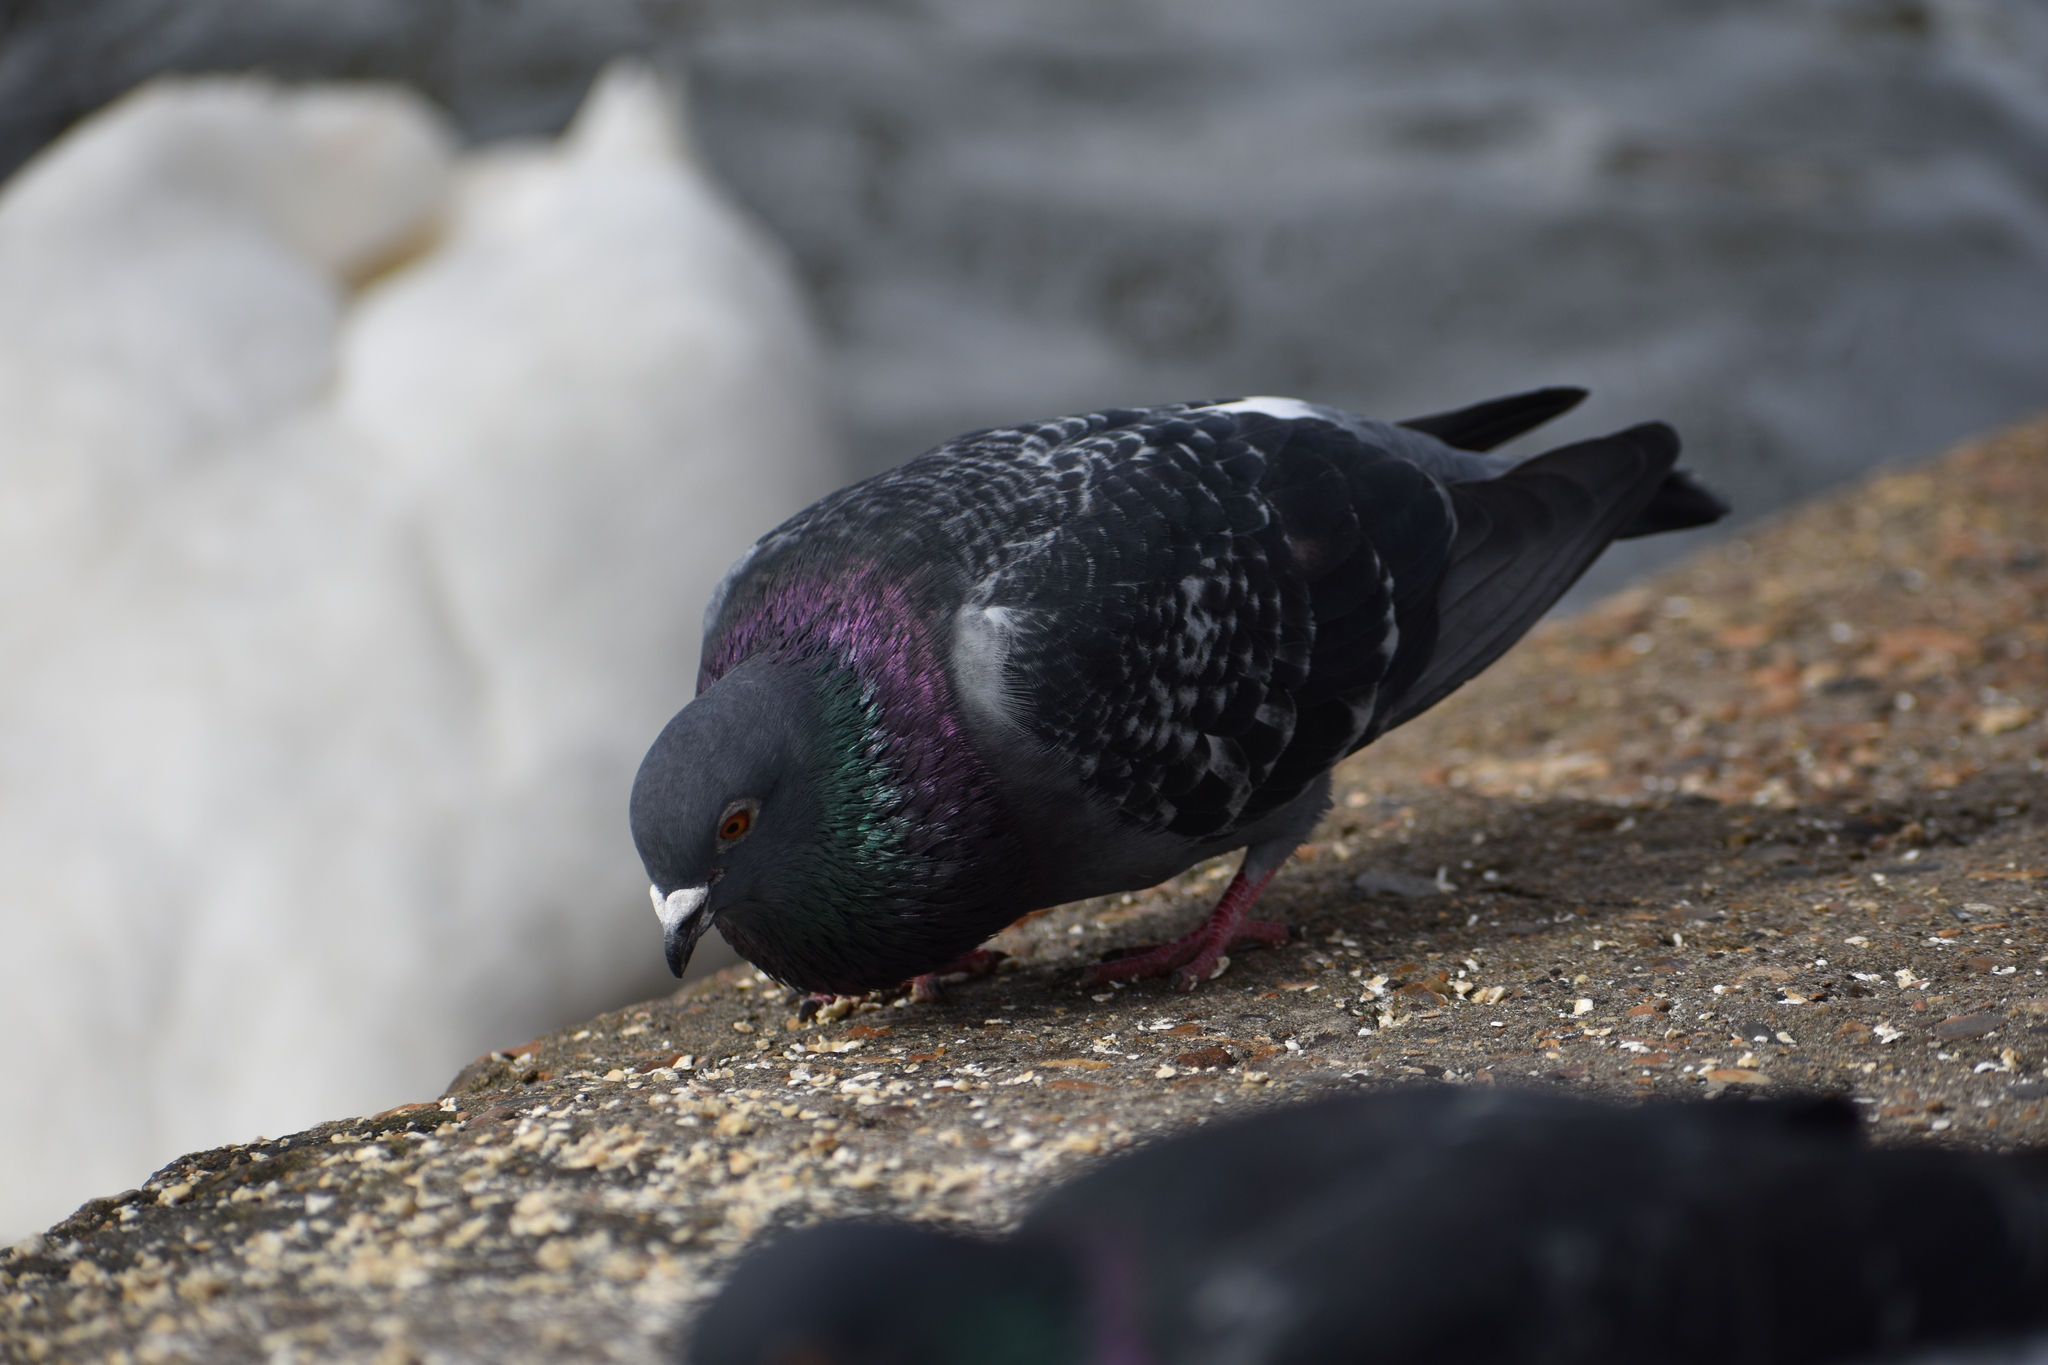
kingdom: Animalia
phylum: Chordata
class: Aves
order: Columbiformes
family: Columbidae
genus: Columba
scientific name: Columba livia
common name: Rock pigeon
